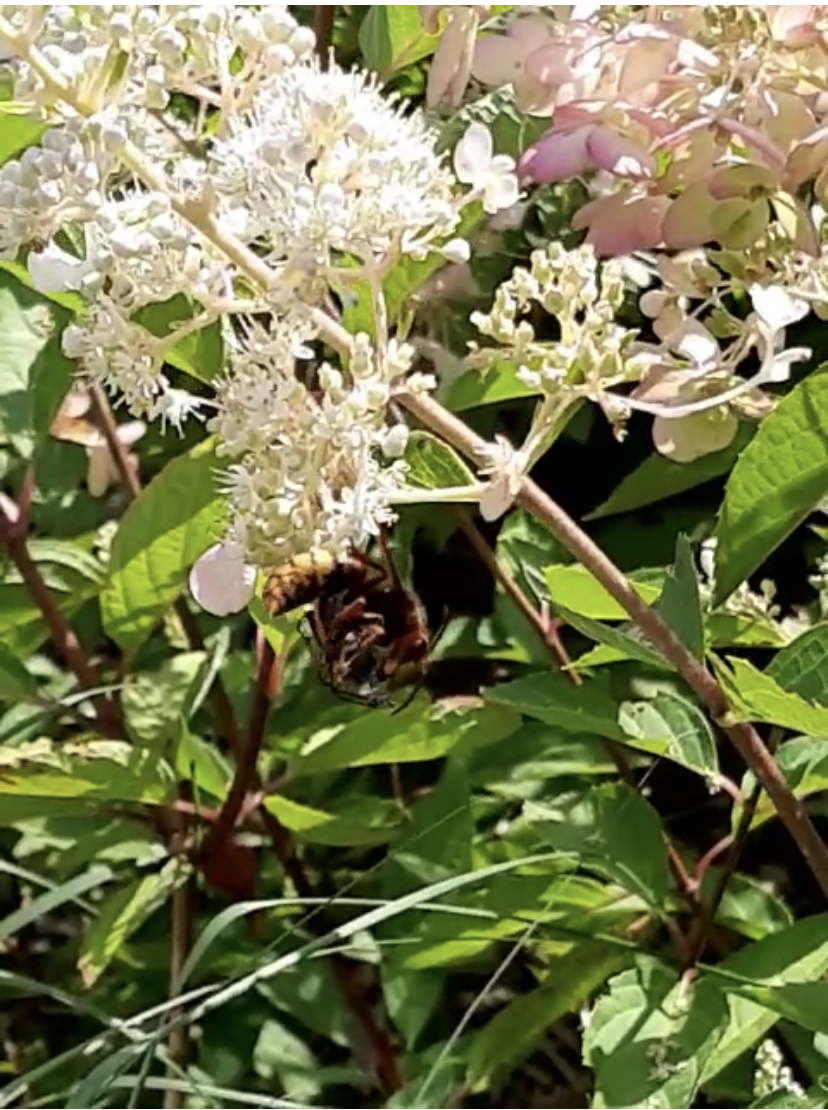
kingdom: Animalia
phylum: Arthropoda
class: Insecta
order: Hymenoptera
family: Vespidae
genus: Vespa
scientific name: Vespa crabro
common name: Hornet
